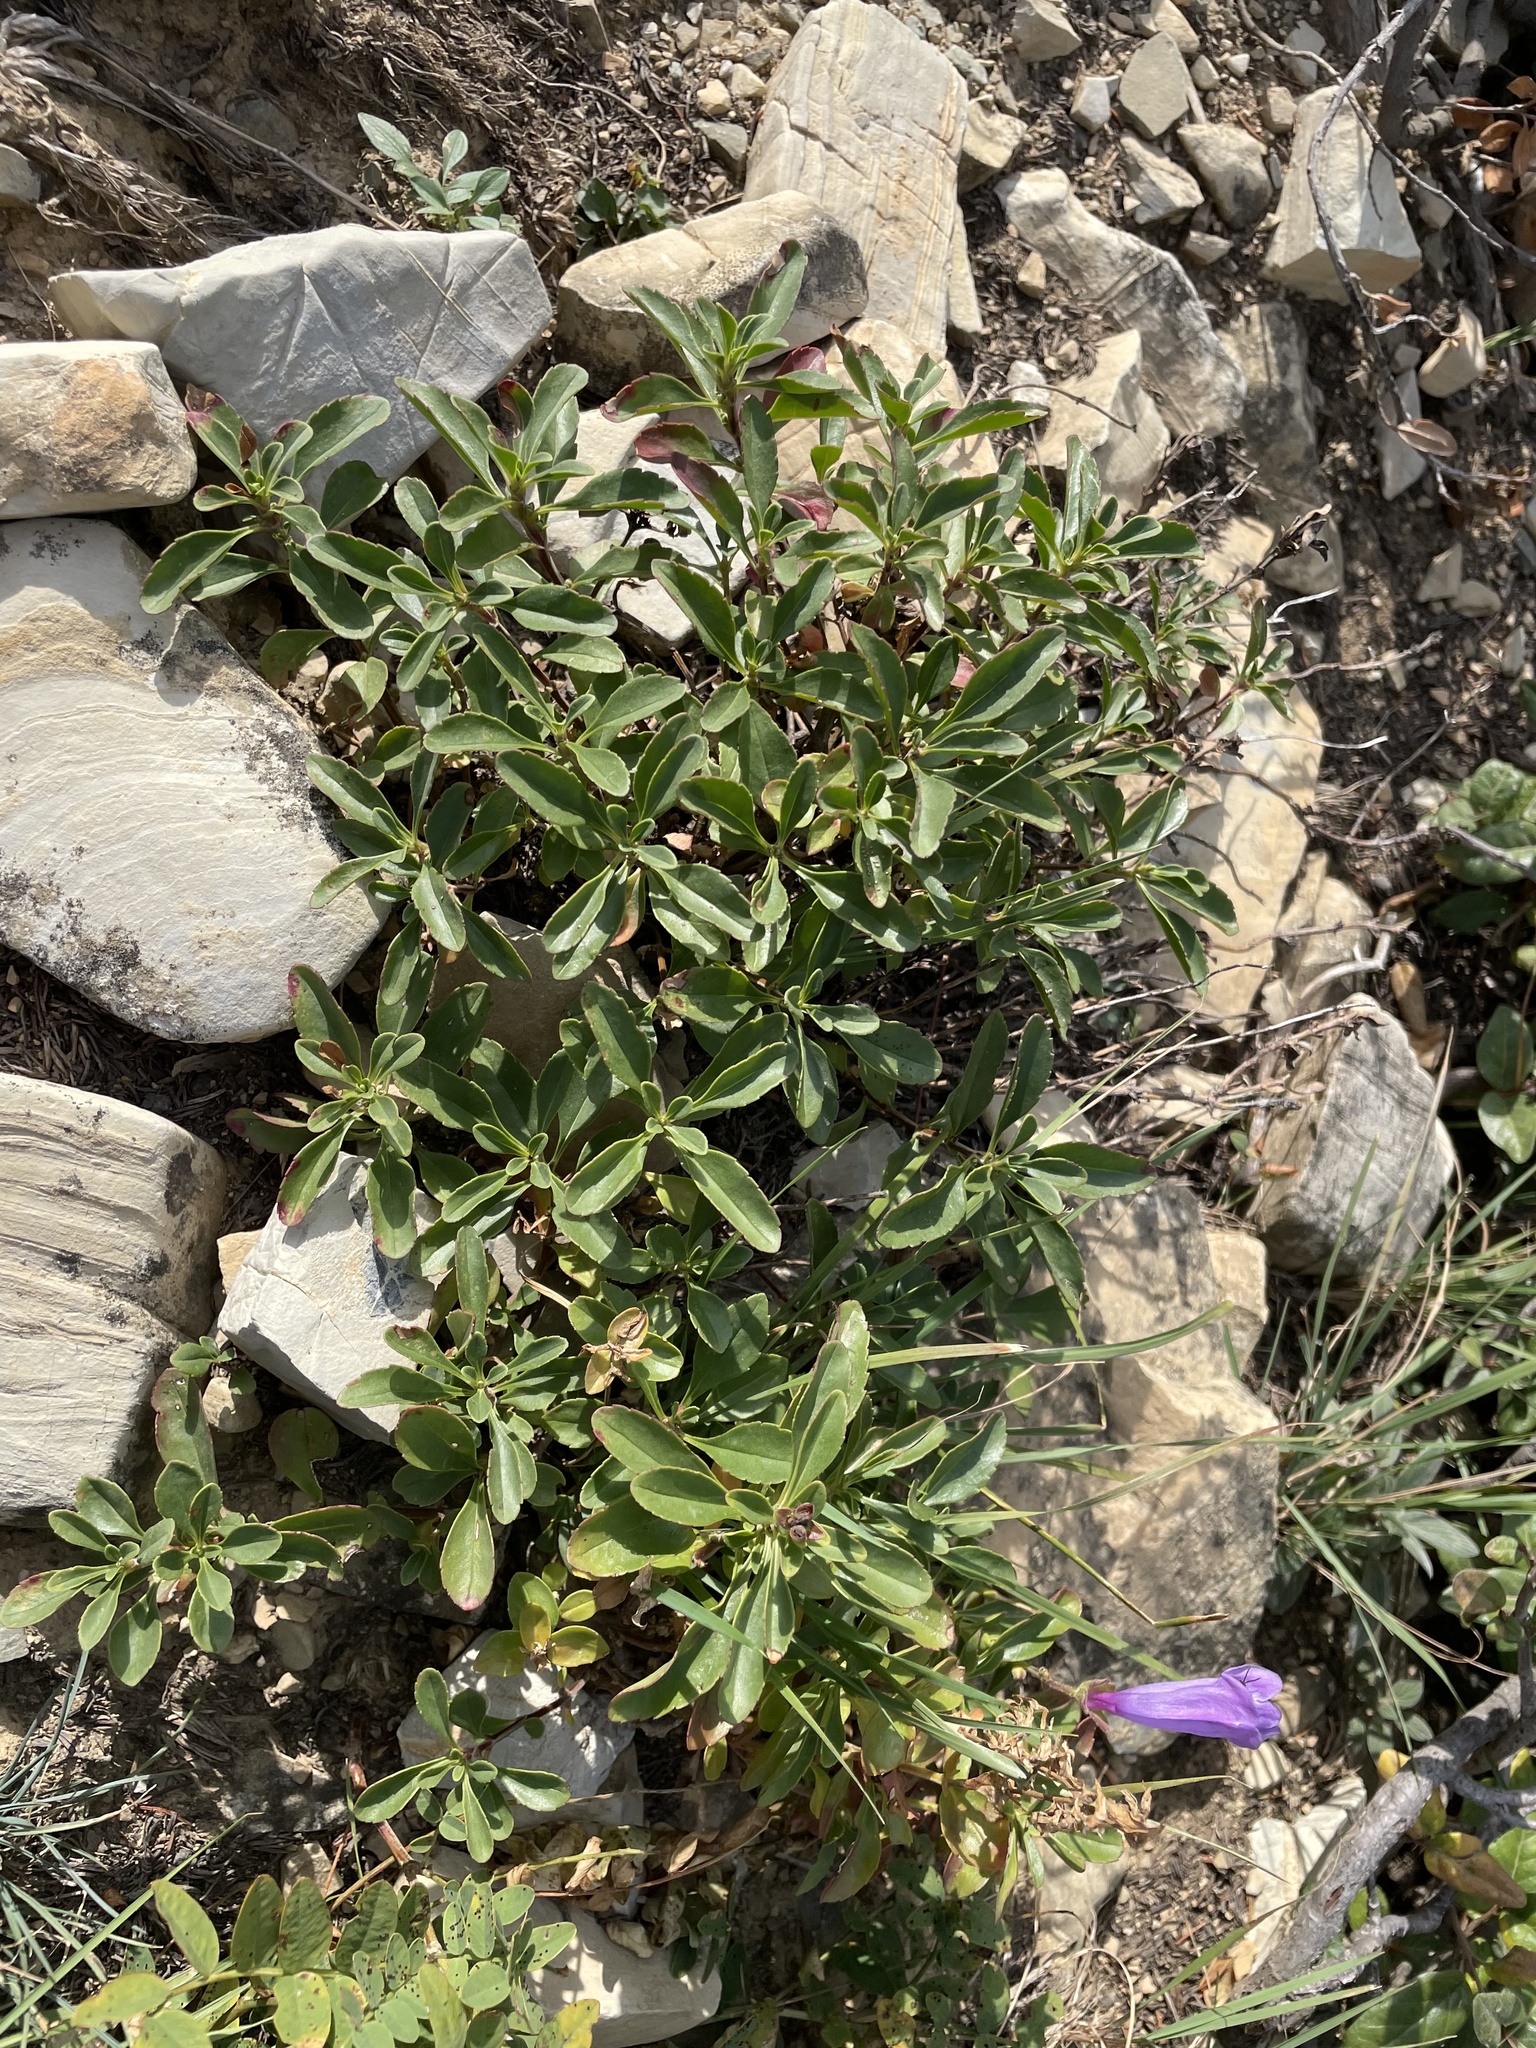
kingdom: Plantae
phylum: Tracheophyta
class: Magnoliopsida
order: Lamiales
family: Plantaginaceae
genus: Penstemon
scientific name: Penstemon ellipticus
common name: Alpine beardtongue
